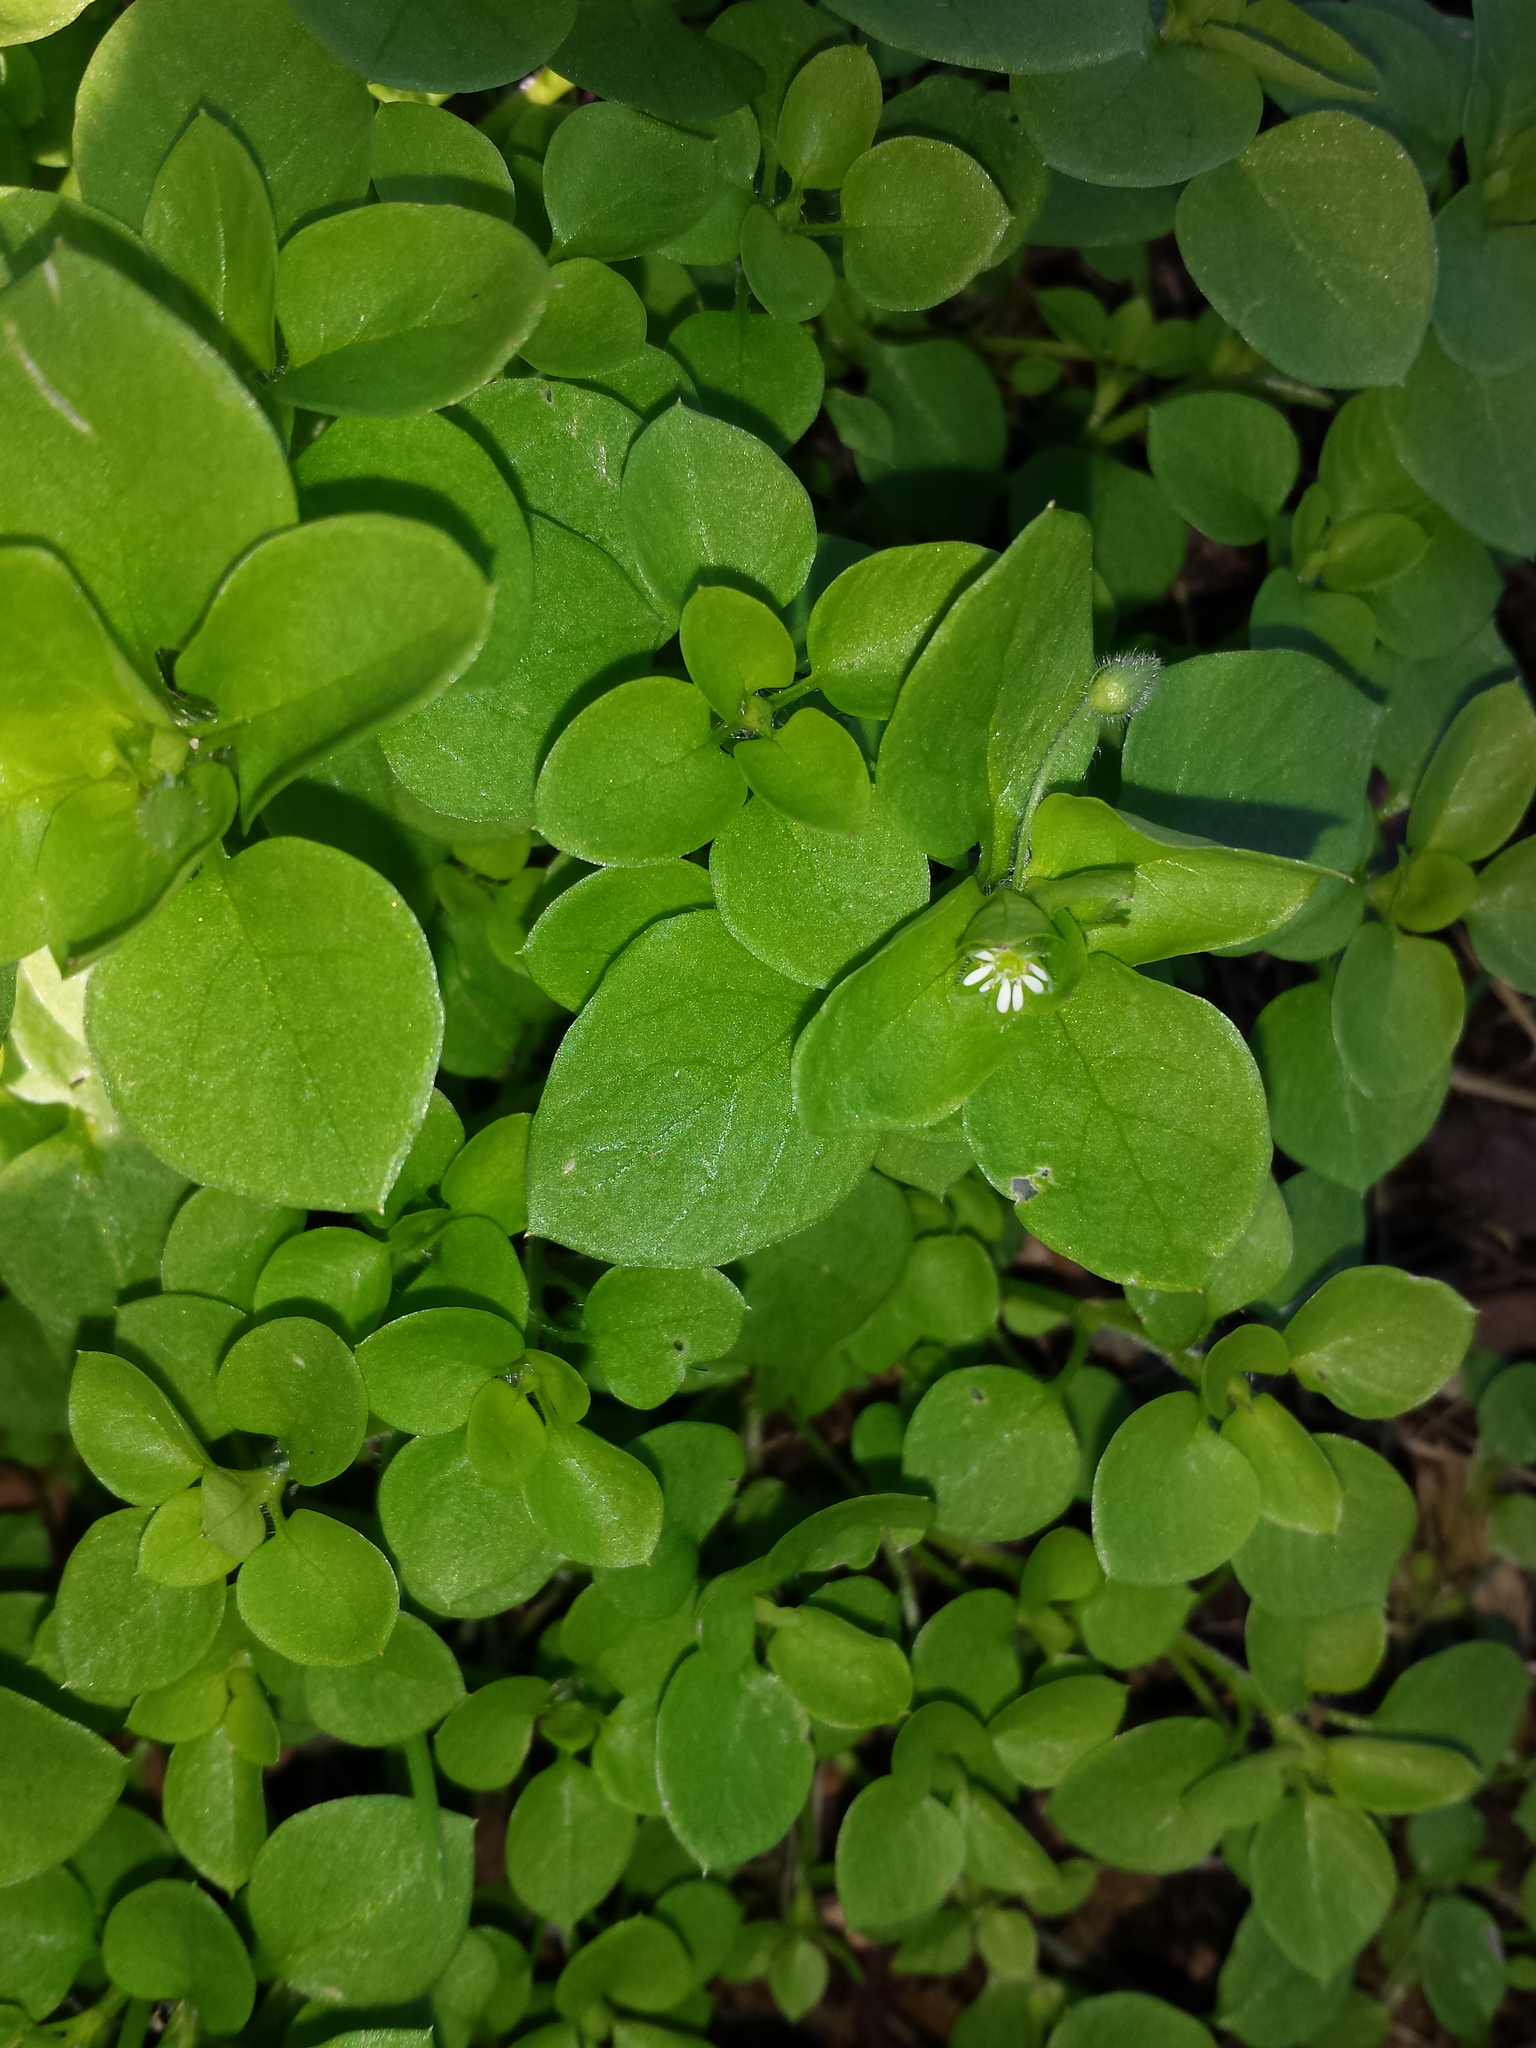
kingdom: Plantae
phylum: Tracheophyta
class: Magnoliopsida
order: Caryophyllales
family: Caryophyllaceae
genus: Stellaria
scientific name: Stellaria media
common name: Common chickweed
